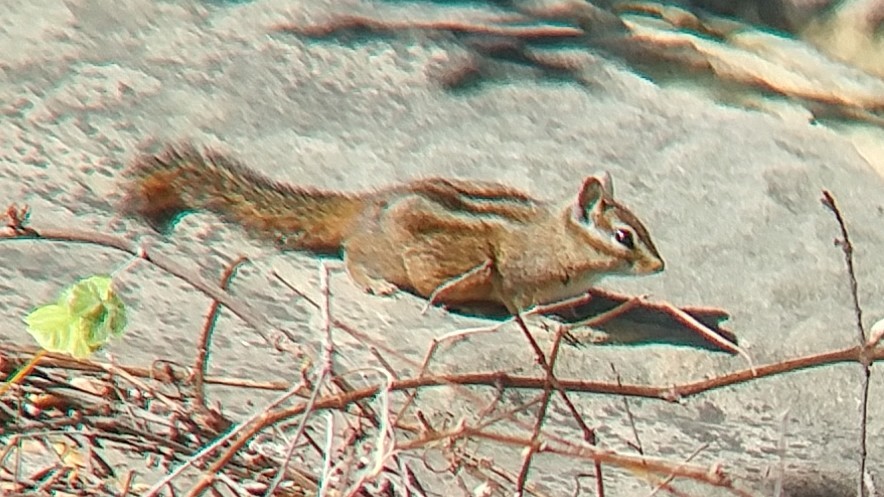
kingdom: Animalia
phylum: Chordata
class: Mammalia
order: Rodentia
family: Sciuridae
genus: Tamias
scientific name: Tamias merriami
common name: Merriam's chipmunk
